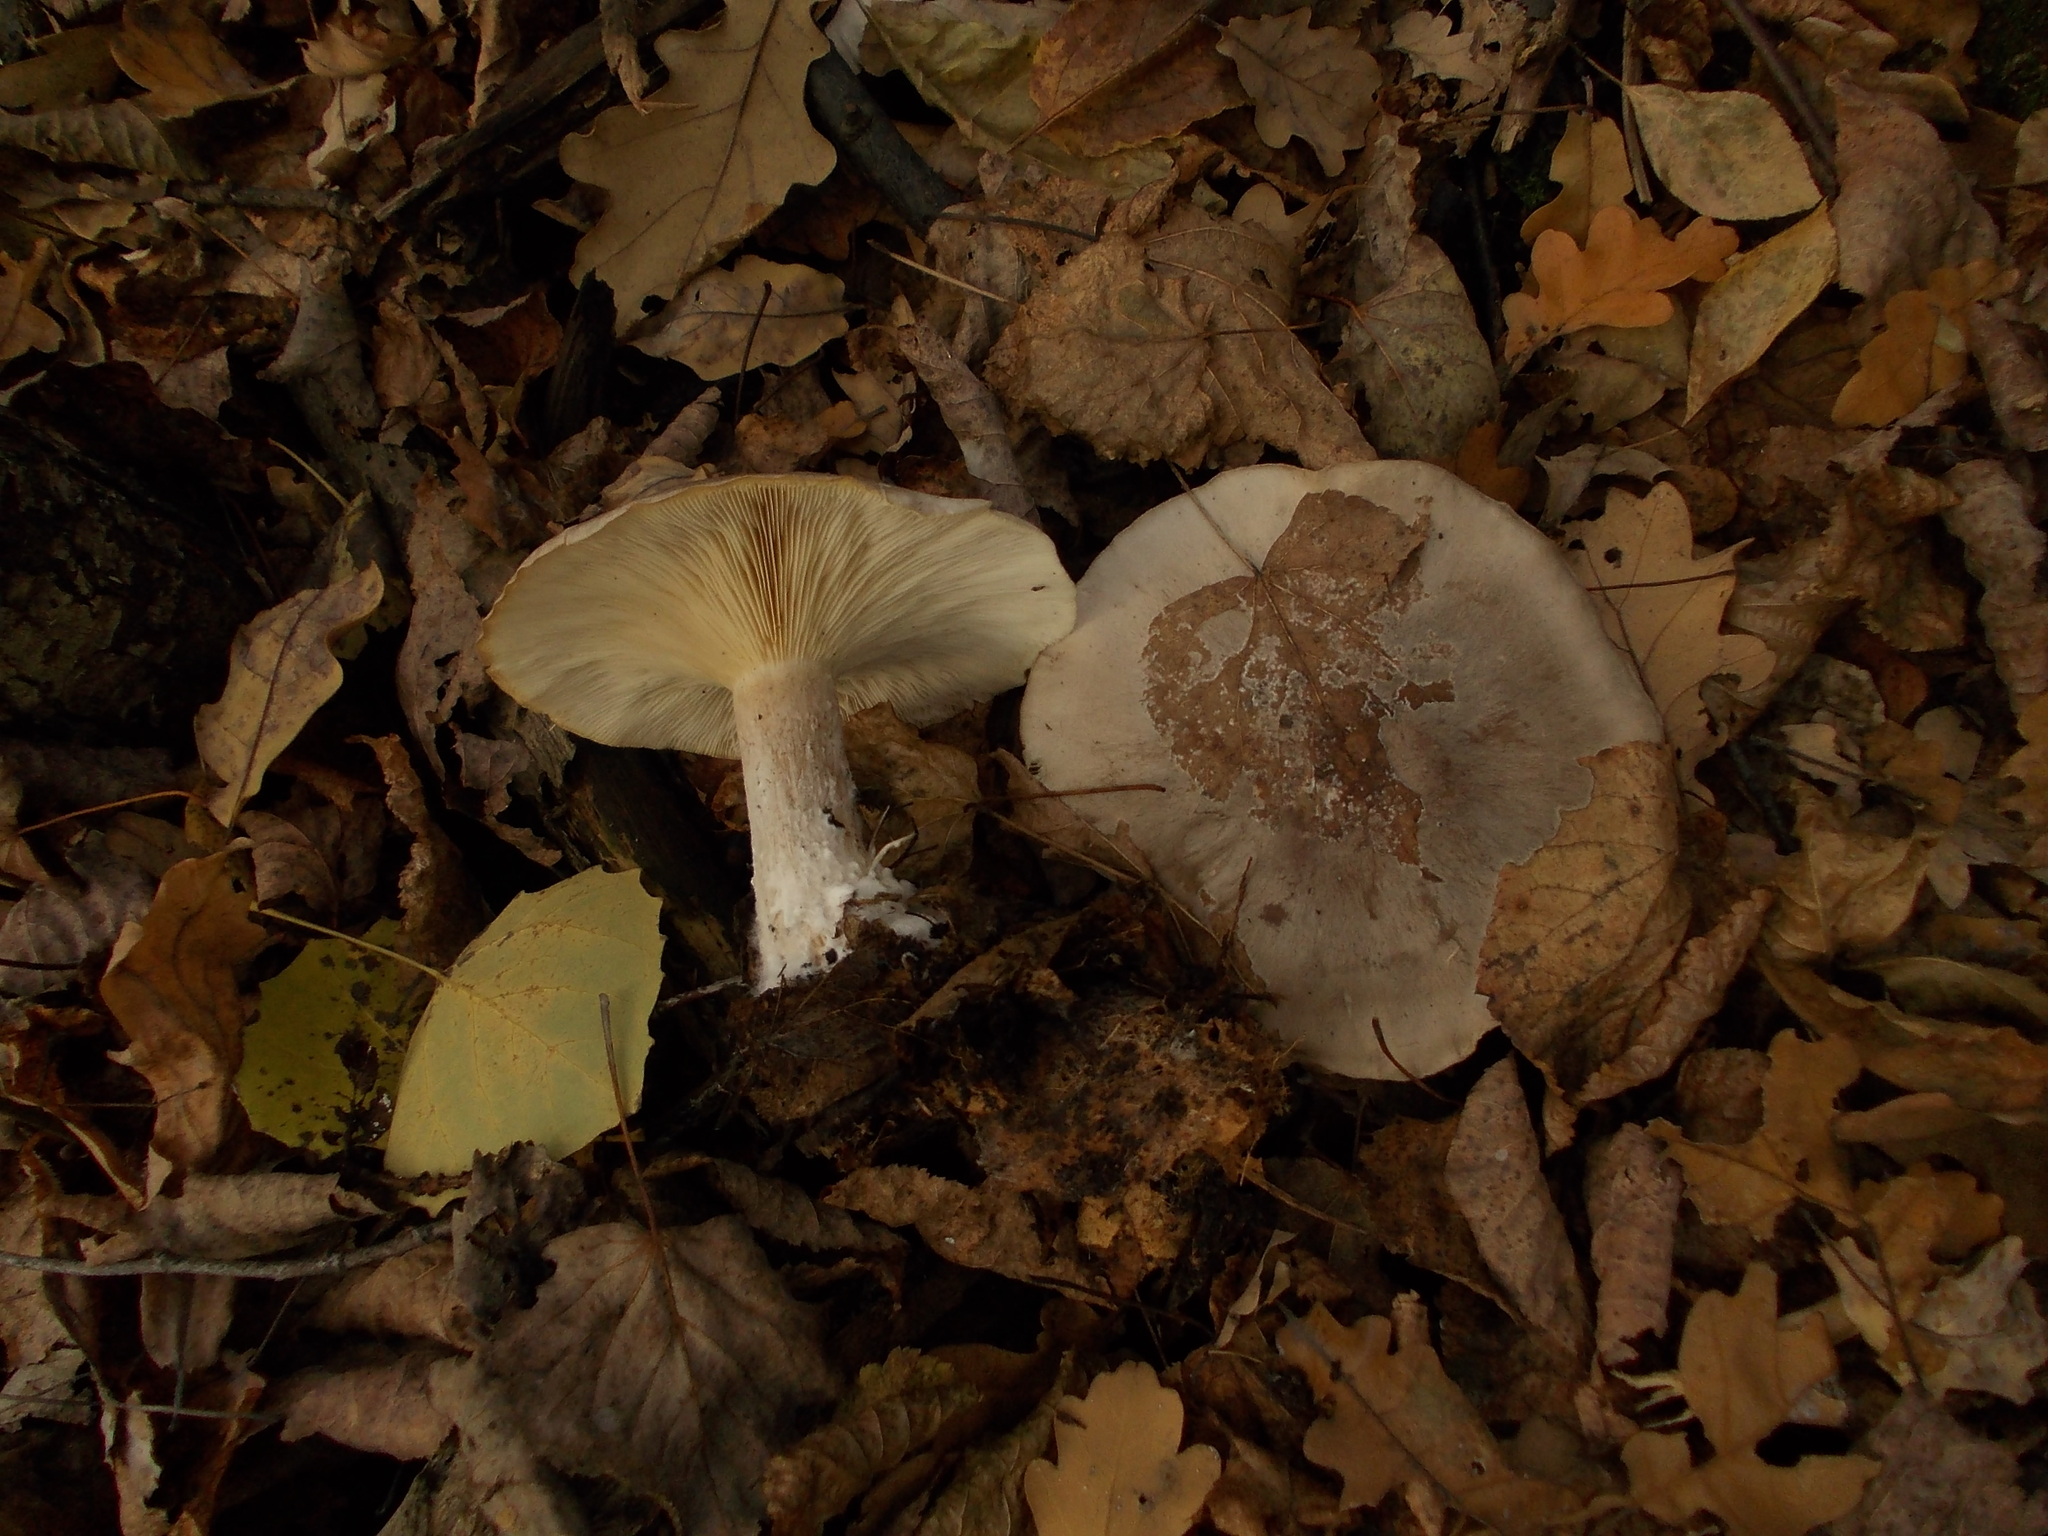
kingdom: Fungi
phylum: Basidiomycota
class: Agaricomycetes
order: Agaricales
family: Tricholomataceae
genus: Clitocybe
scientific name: Clitocybe nebularis
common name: Clouded agaric
